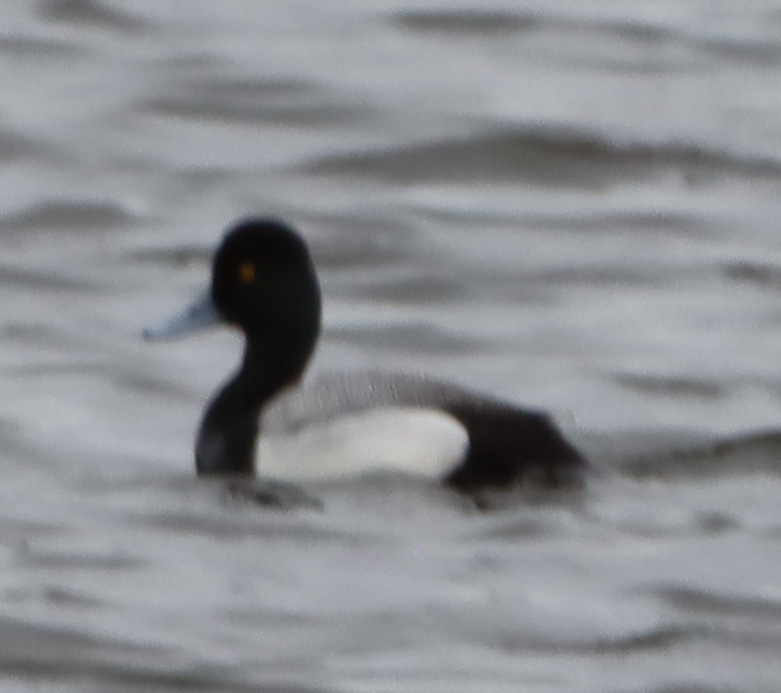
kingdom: Animalia
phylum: Chordata
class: Aves
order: Anseriformes
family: Anatidae
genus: Aythya
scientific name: Aythya affinis
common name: Lesser scaup
